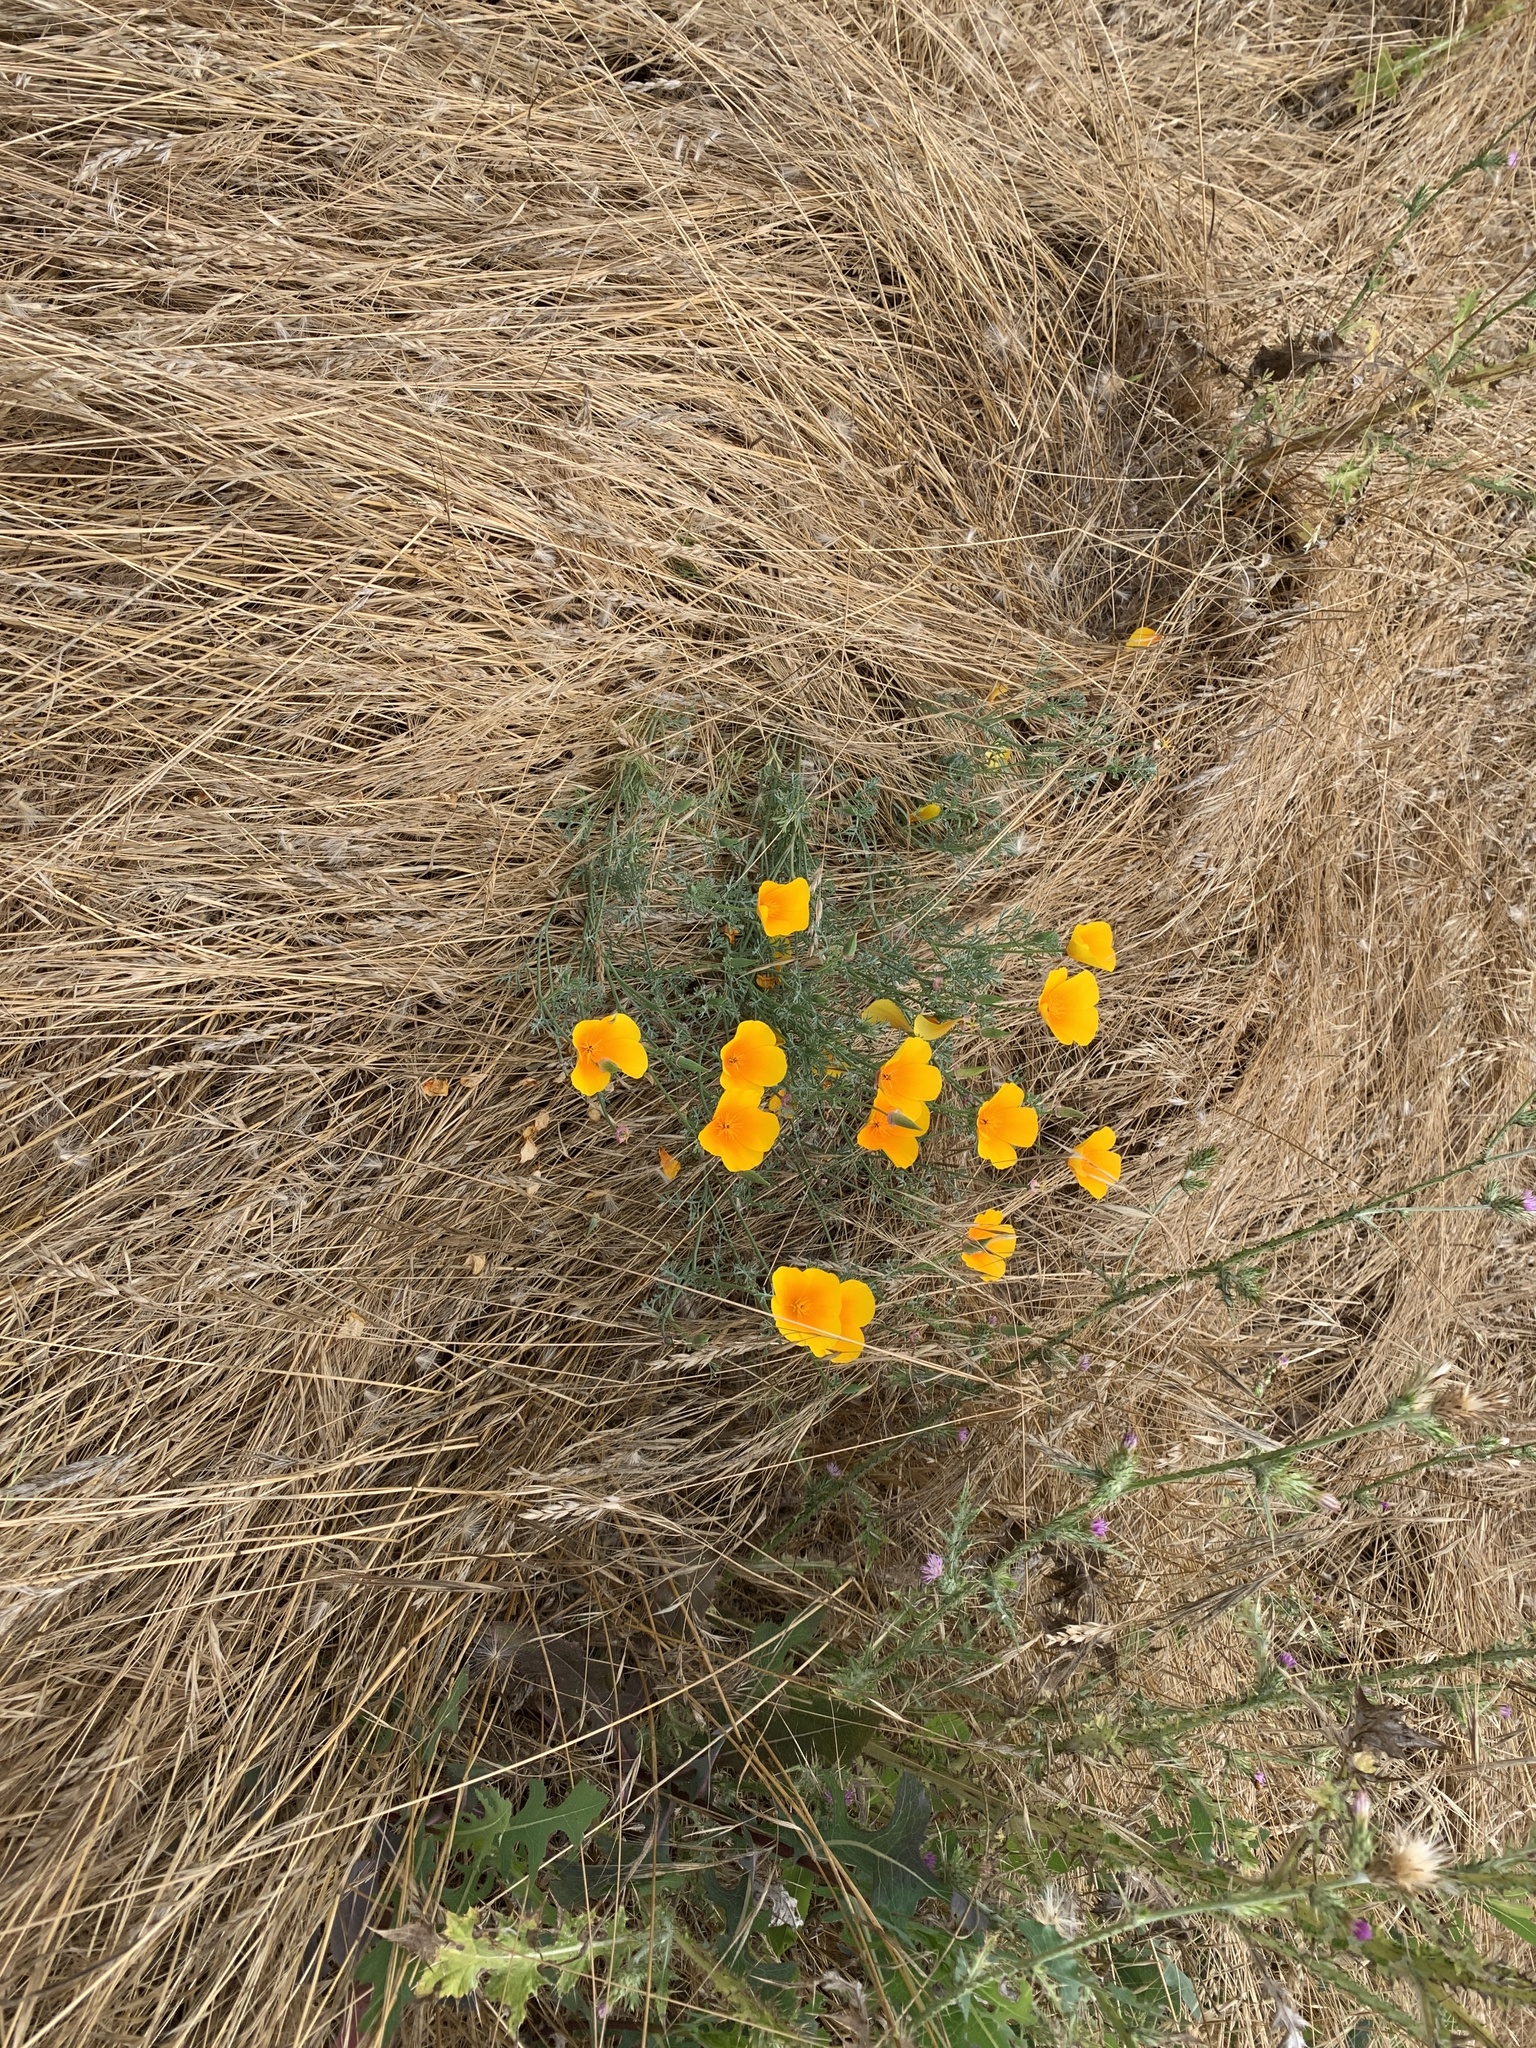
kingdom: Plantae
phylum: Tracheophyta
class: Magnoliopsida
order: Ranunculales
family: Papaveraceae
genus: Eschscholzia
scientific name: Eschscholzia californica
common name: California poppy
